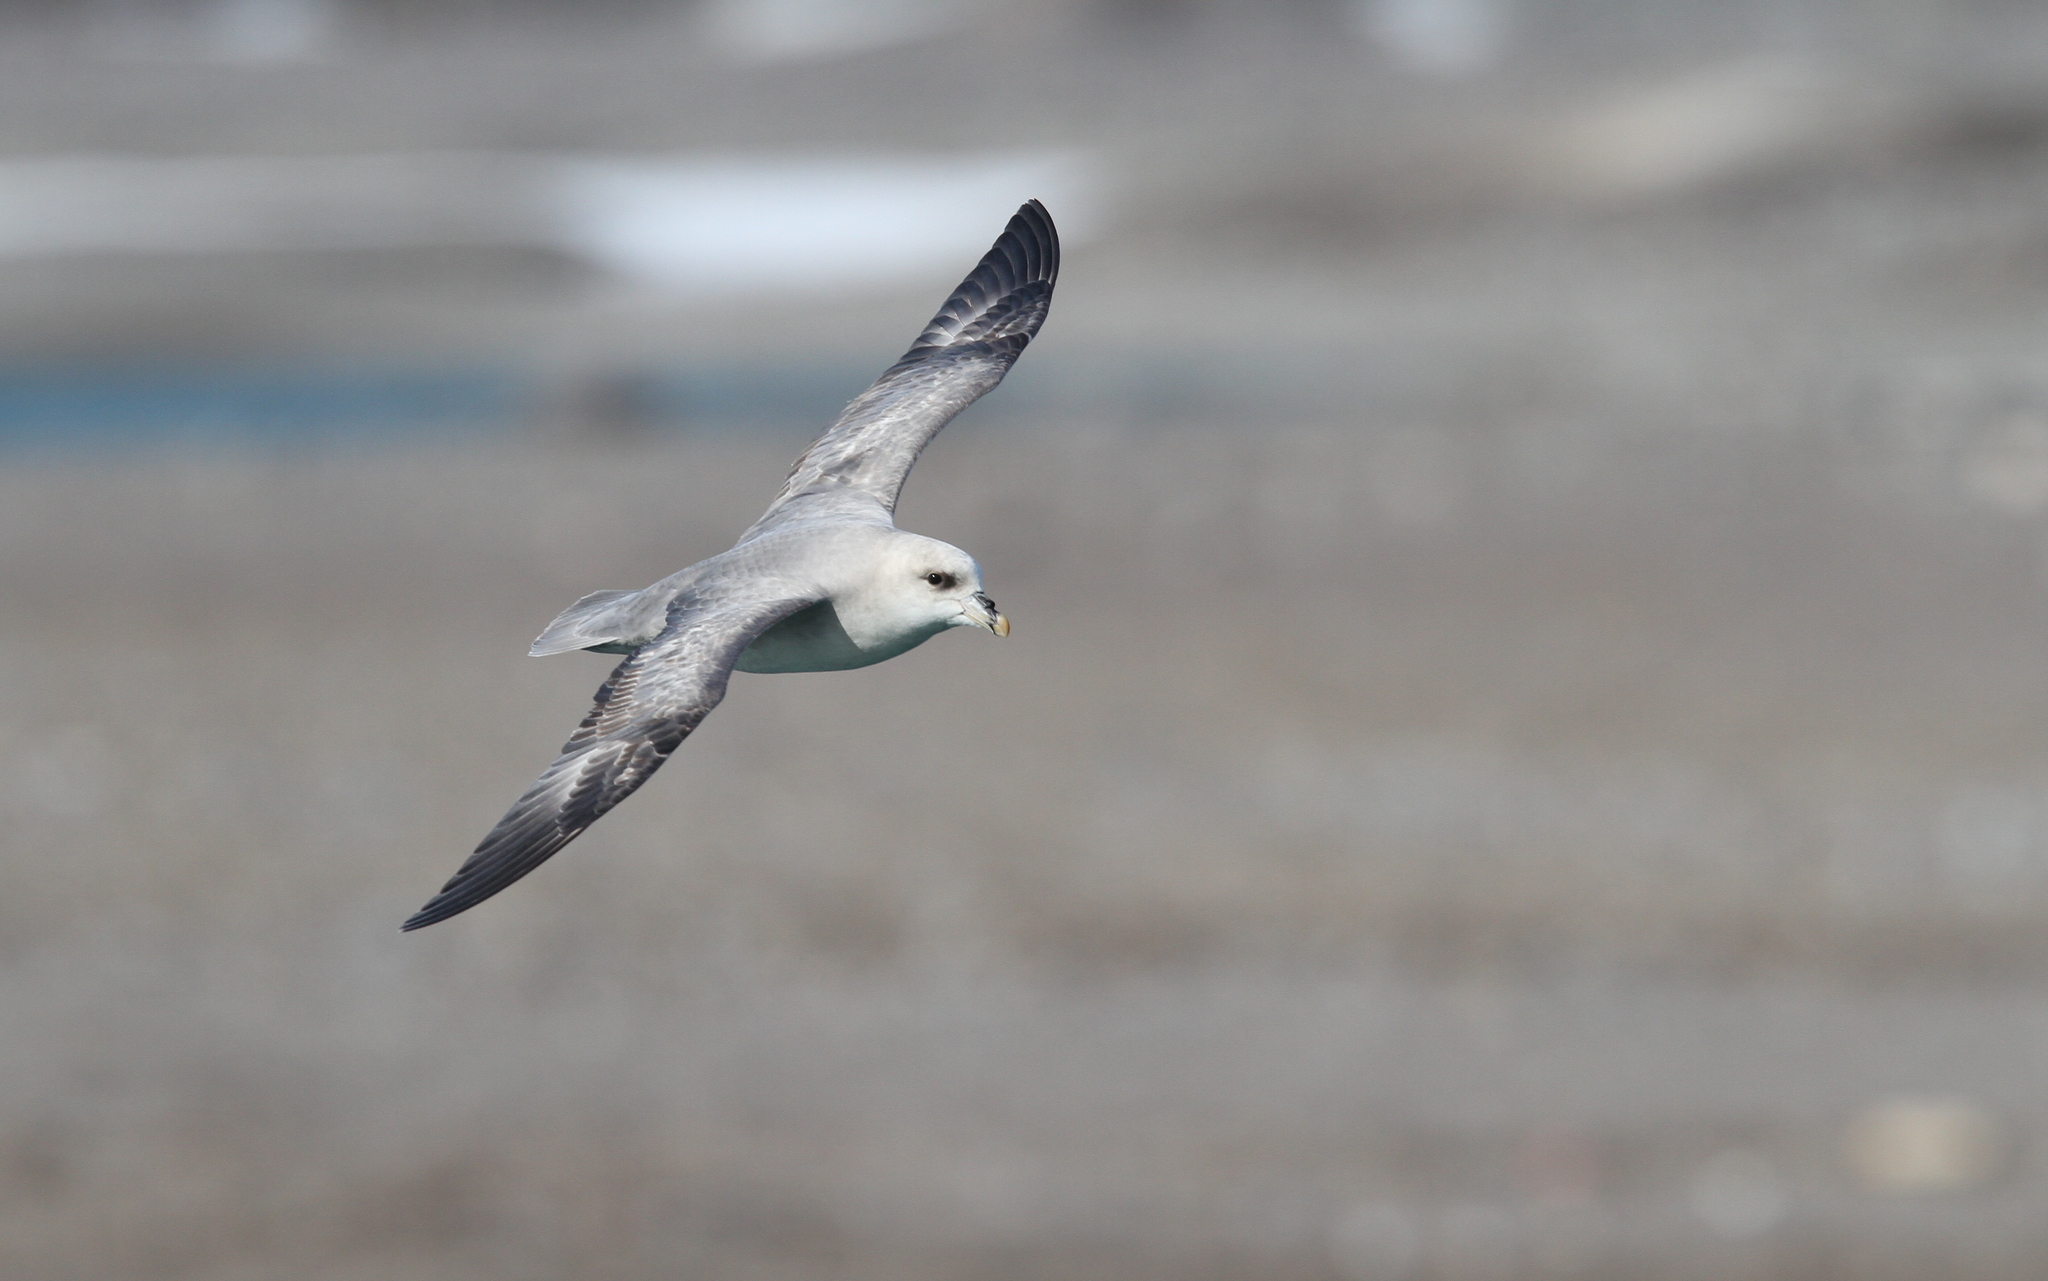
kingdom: Animalia
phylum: Chordata
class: Aves
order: Procellariiformes
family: Procellariidae
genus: Fulmarus
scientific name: Fulmarus glacialis
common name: Northern fulmar
